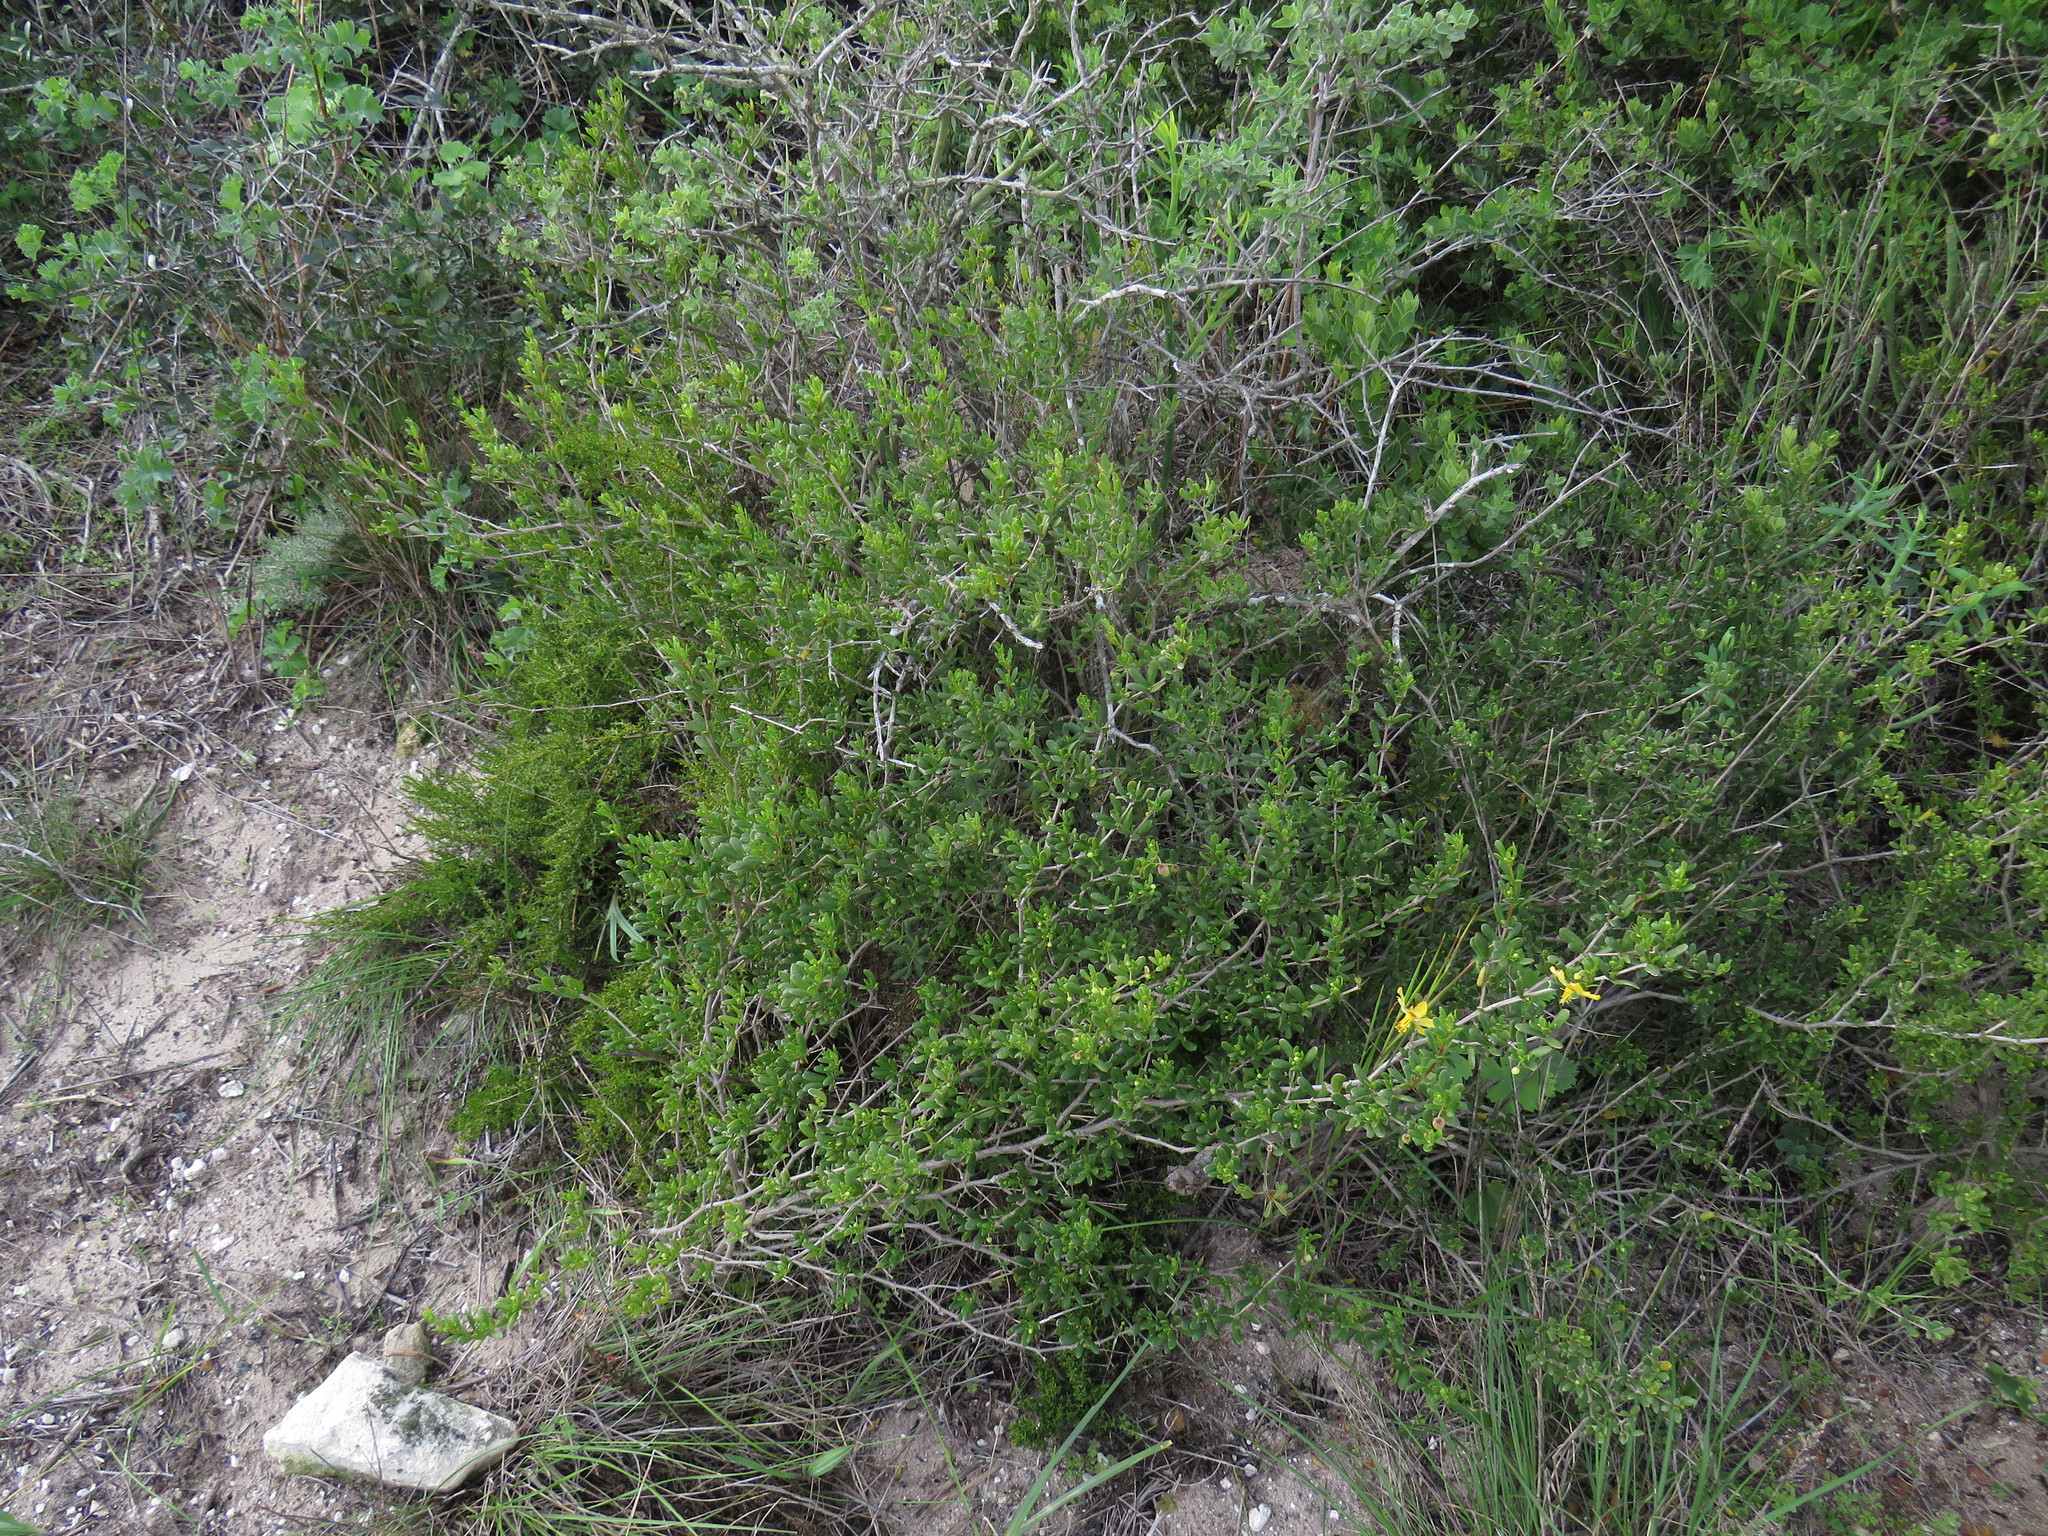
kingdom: Plantae
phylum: Tracheophyta
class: Magnoliopsida
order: Zygophyllales
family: Zygophyllaceae
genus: Roepera
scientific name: Roepera flexuosa
